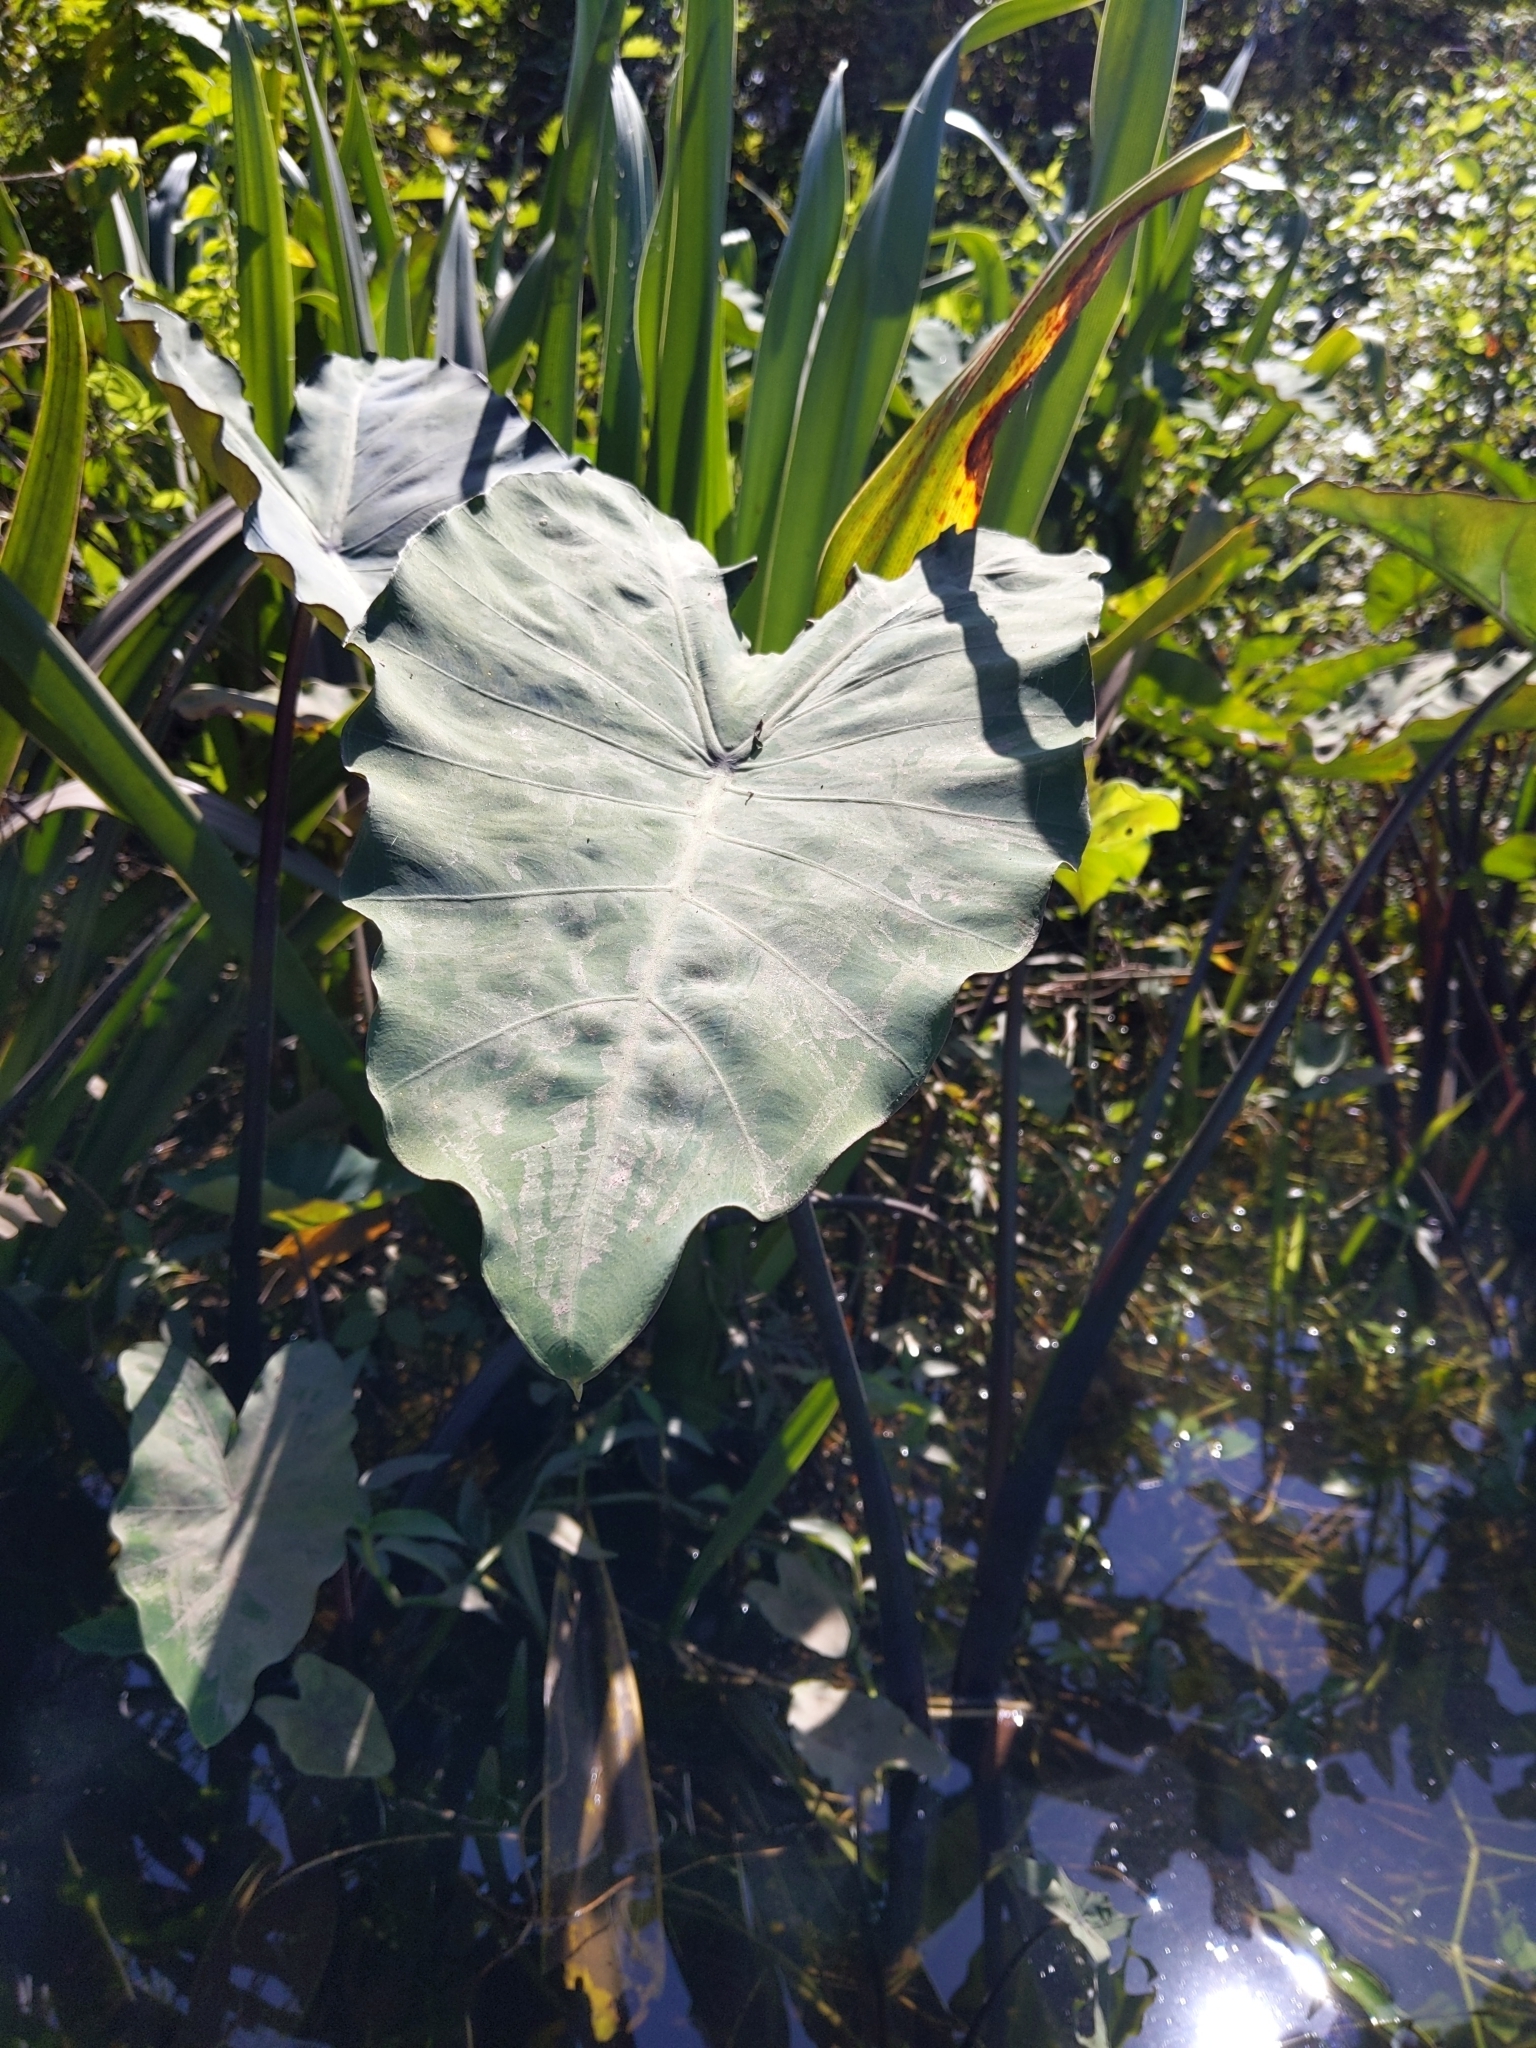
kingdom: Plantae
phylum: Tracheophyta
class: Liliopsida
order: Alismatales
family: Araceae
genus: Colocasia
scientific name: Colocasia esculenta
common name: Taro
